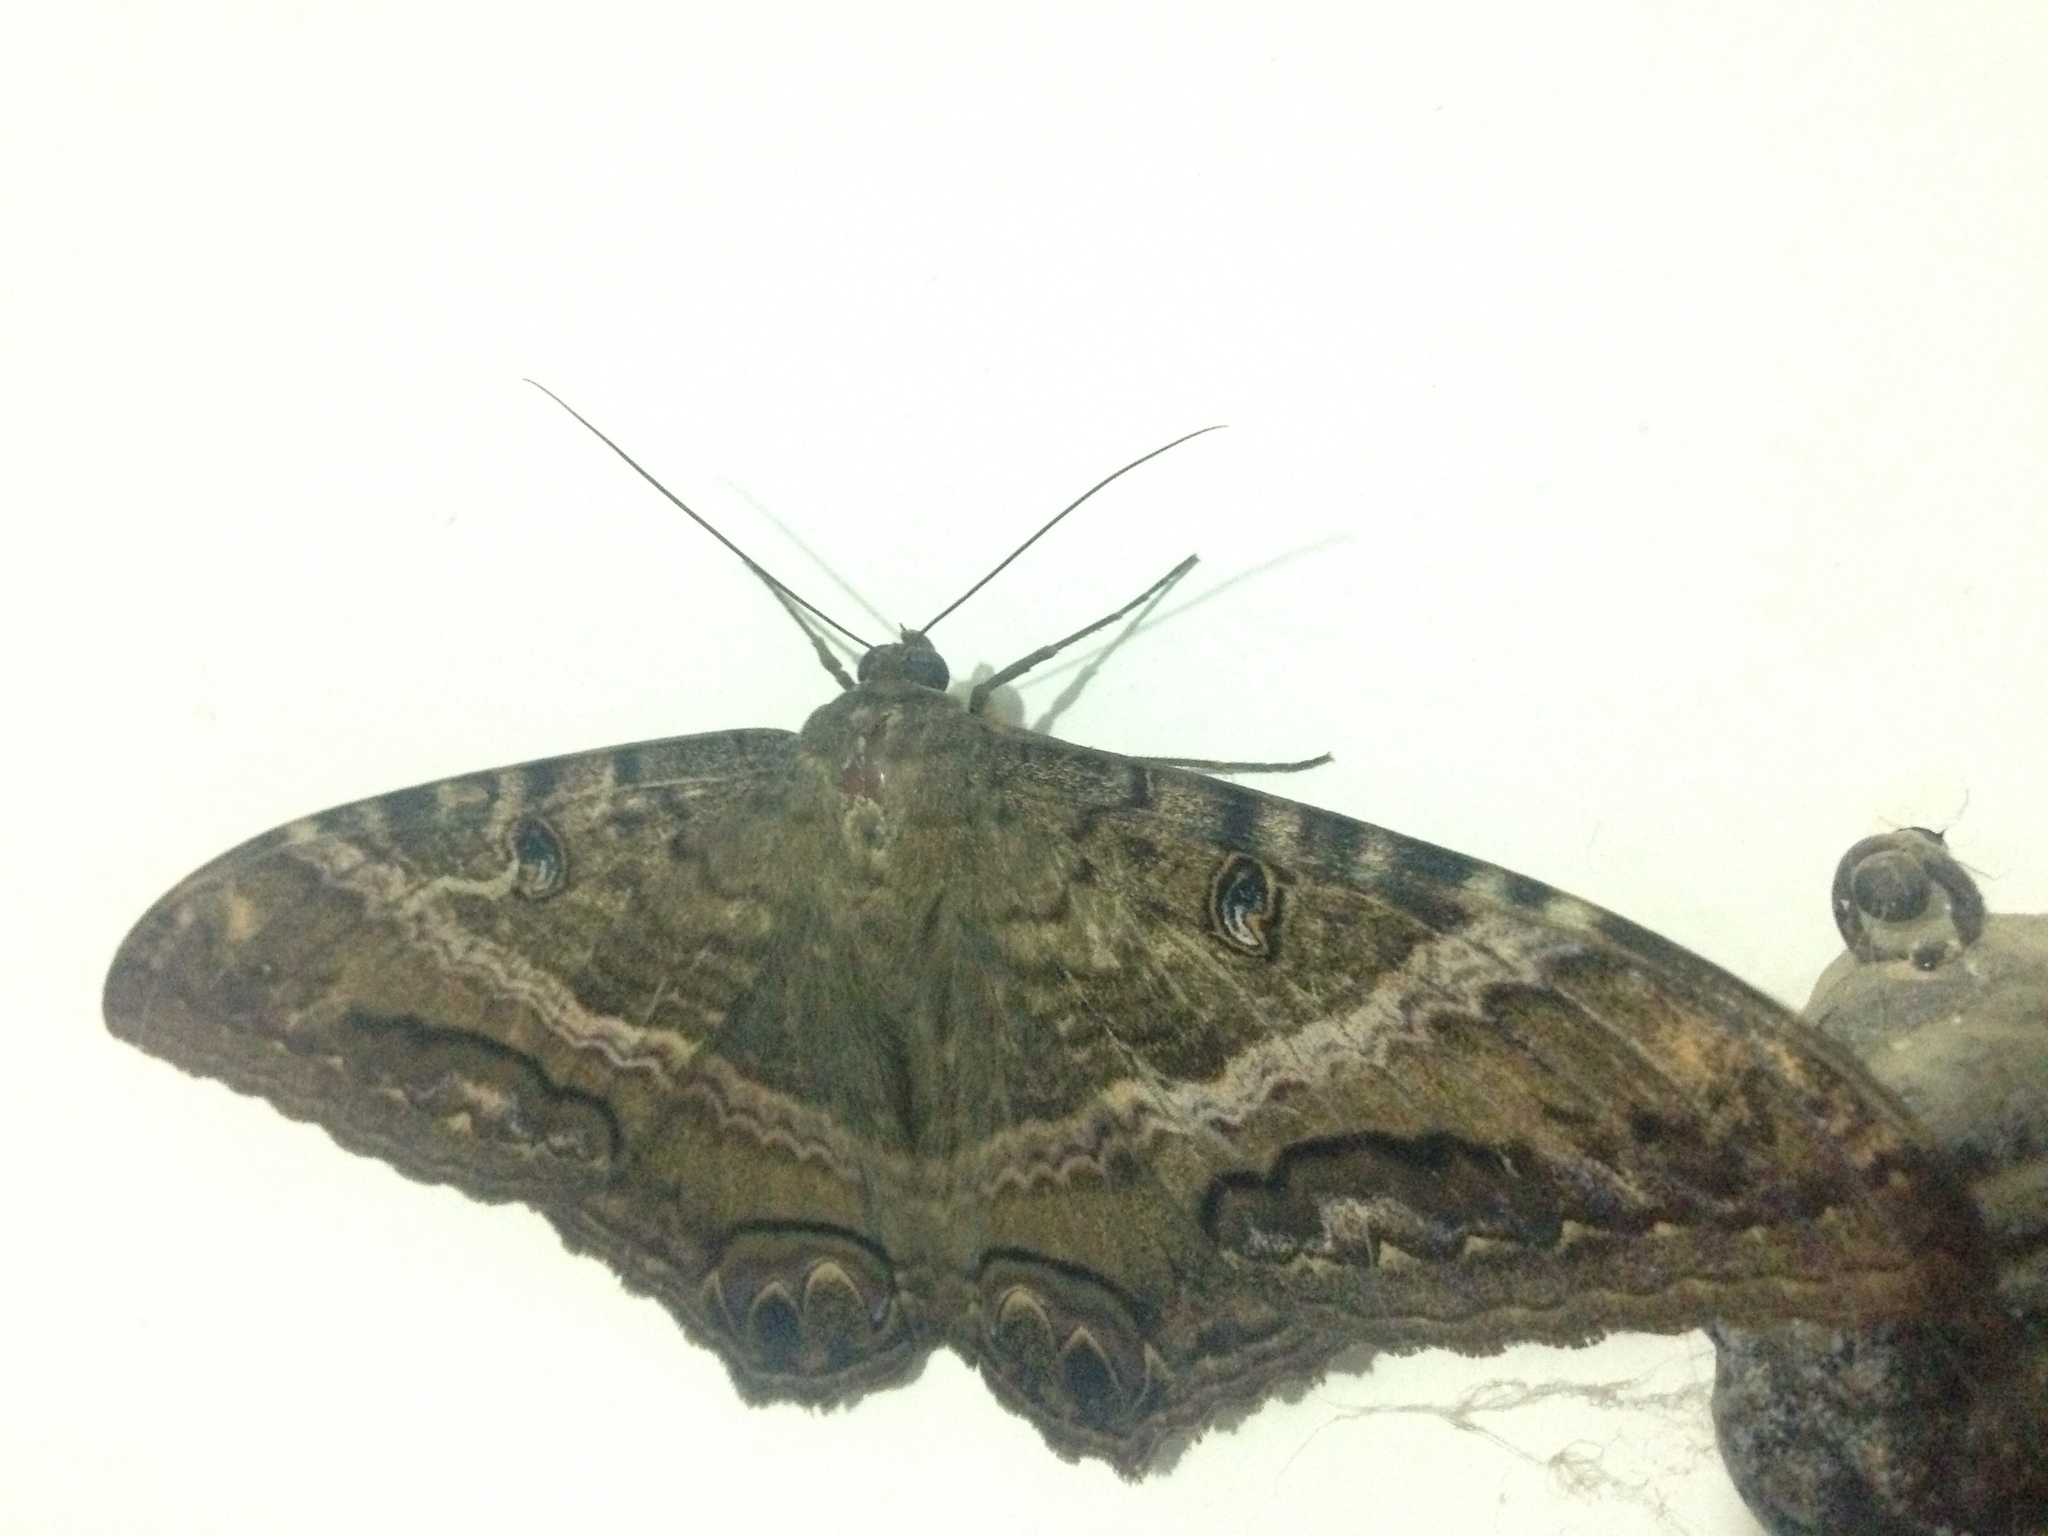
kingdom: Animalia
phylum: Arthropoda
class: Insecta
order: Lepidoptera
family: Erebidae
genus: Ascalapha
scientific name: Ascalapha odorata
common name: Black witch
